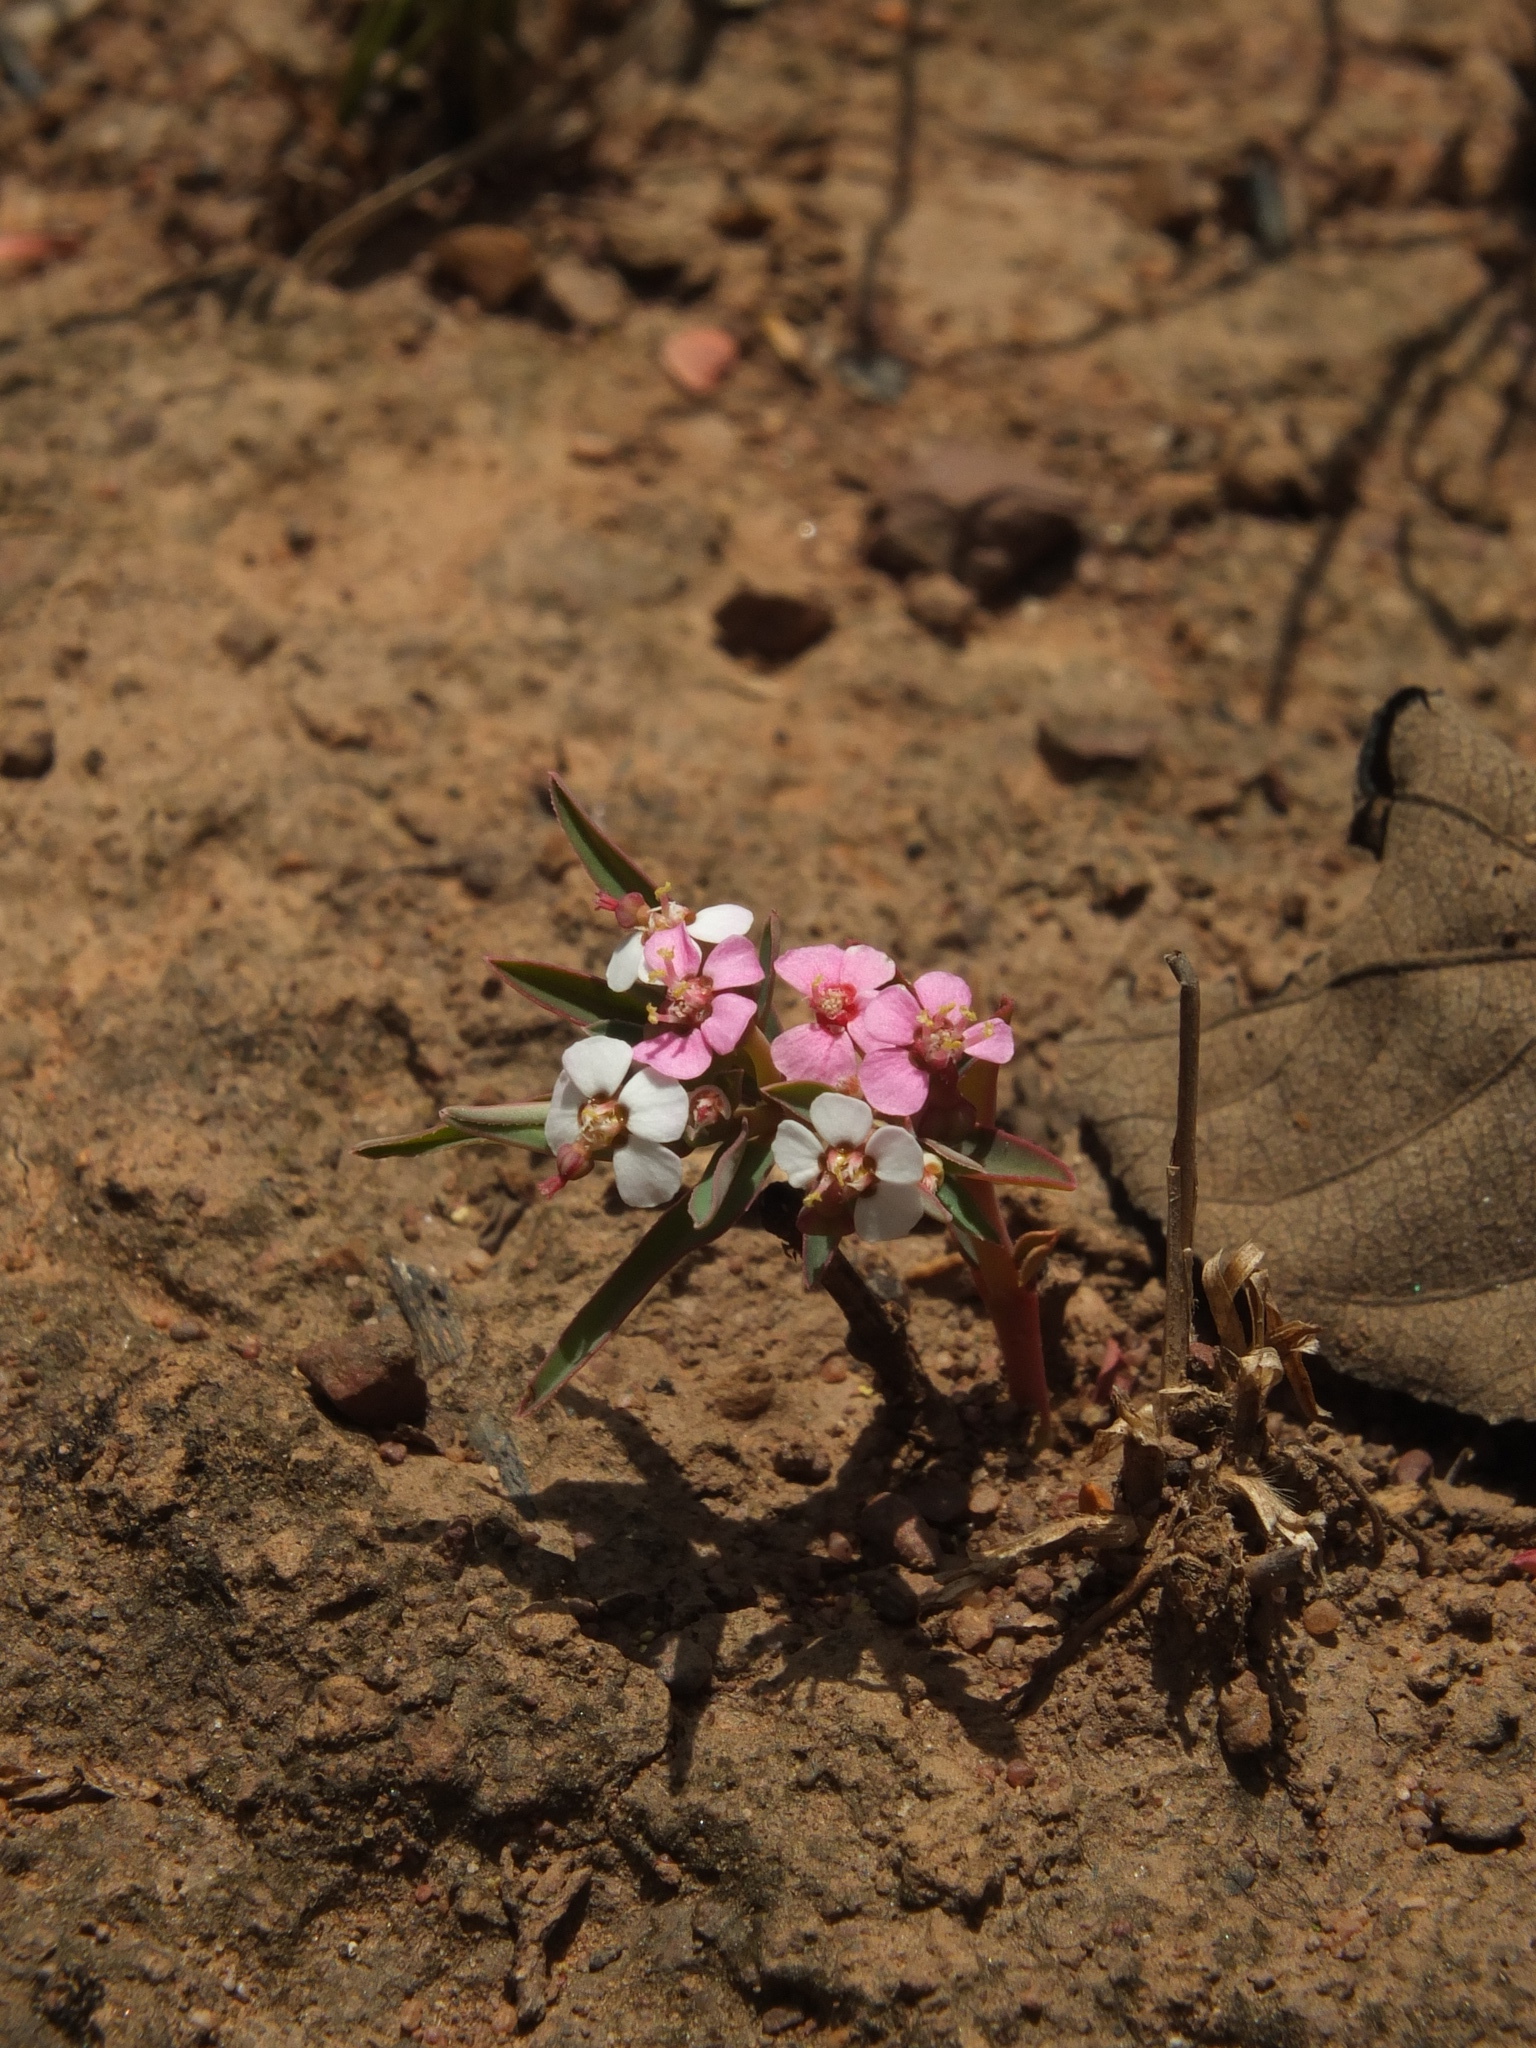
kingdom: Plantae
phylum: Tracheophyta
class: Magnoliopsida
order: Malpighiales
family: Euphorbiaceae
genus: Euphorbia
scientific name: Euphorbia deccanensis
